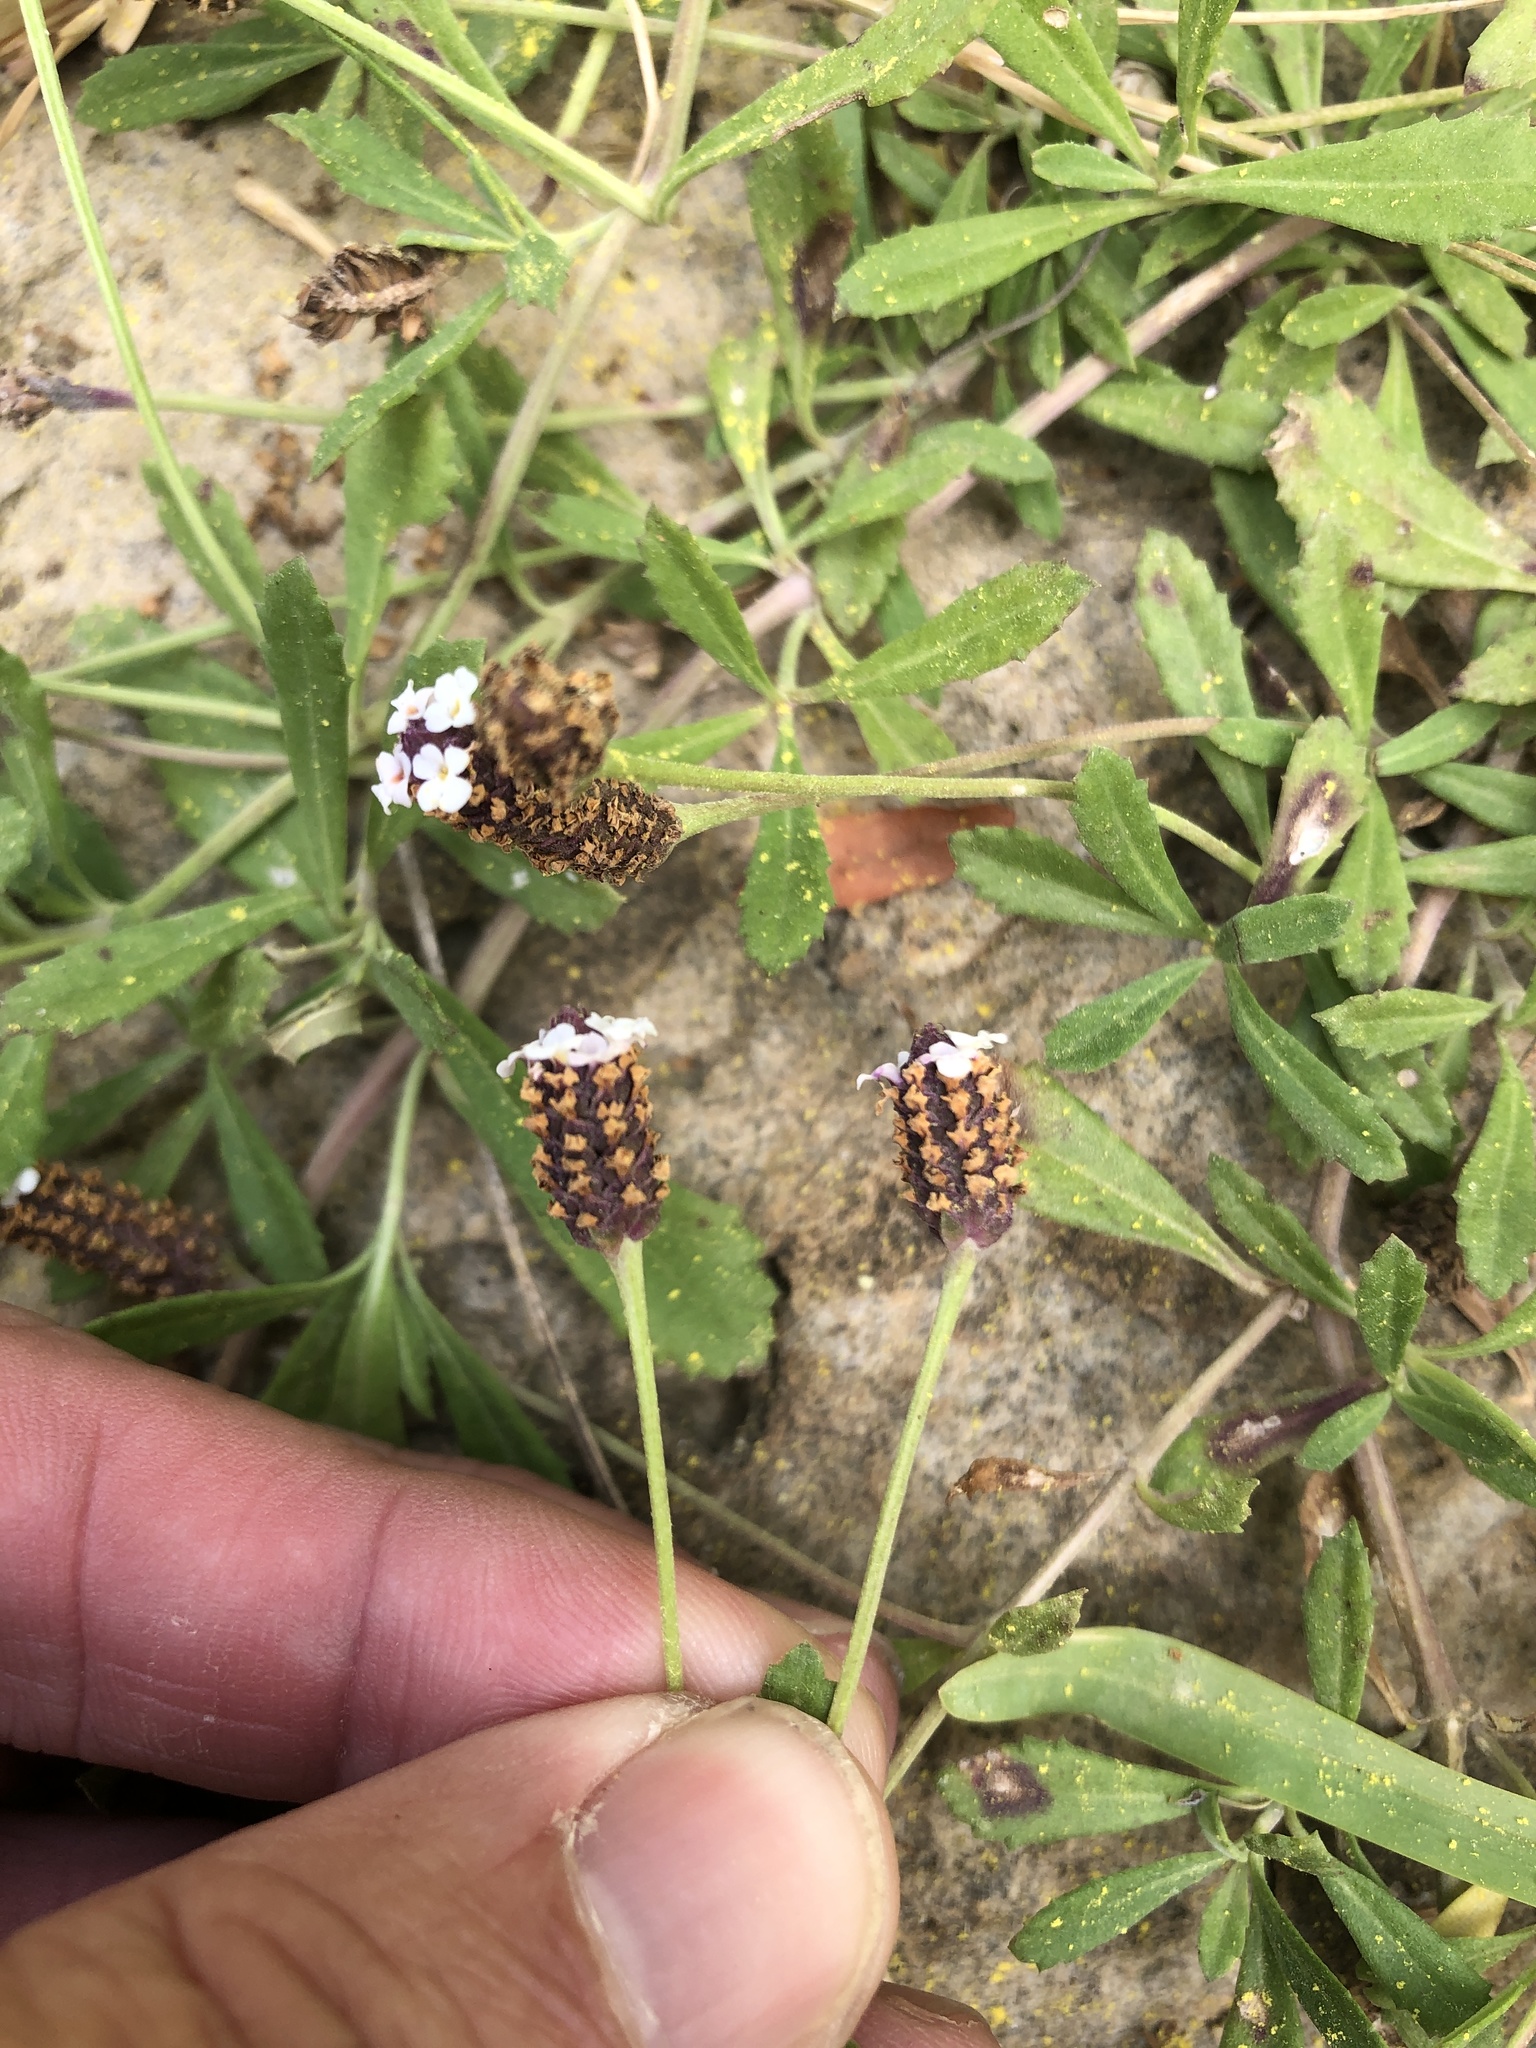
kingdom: Plantae
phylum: Tracheophyta
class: Magnoliopsida
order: Lamiales
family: Verbenaceae
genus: Phyla
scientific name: Phyla nodiflora
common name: Frogfruit
